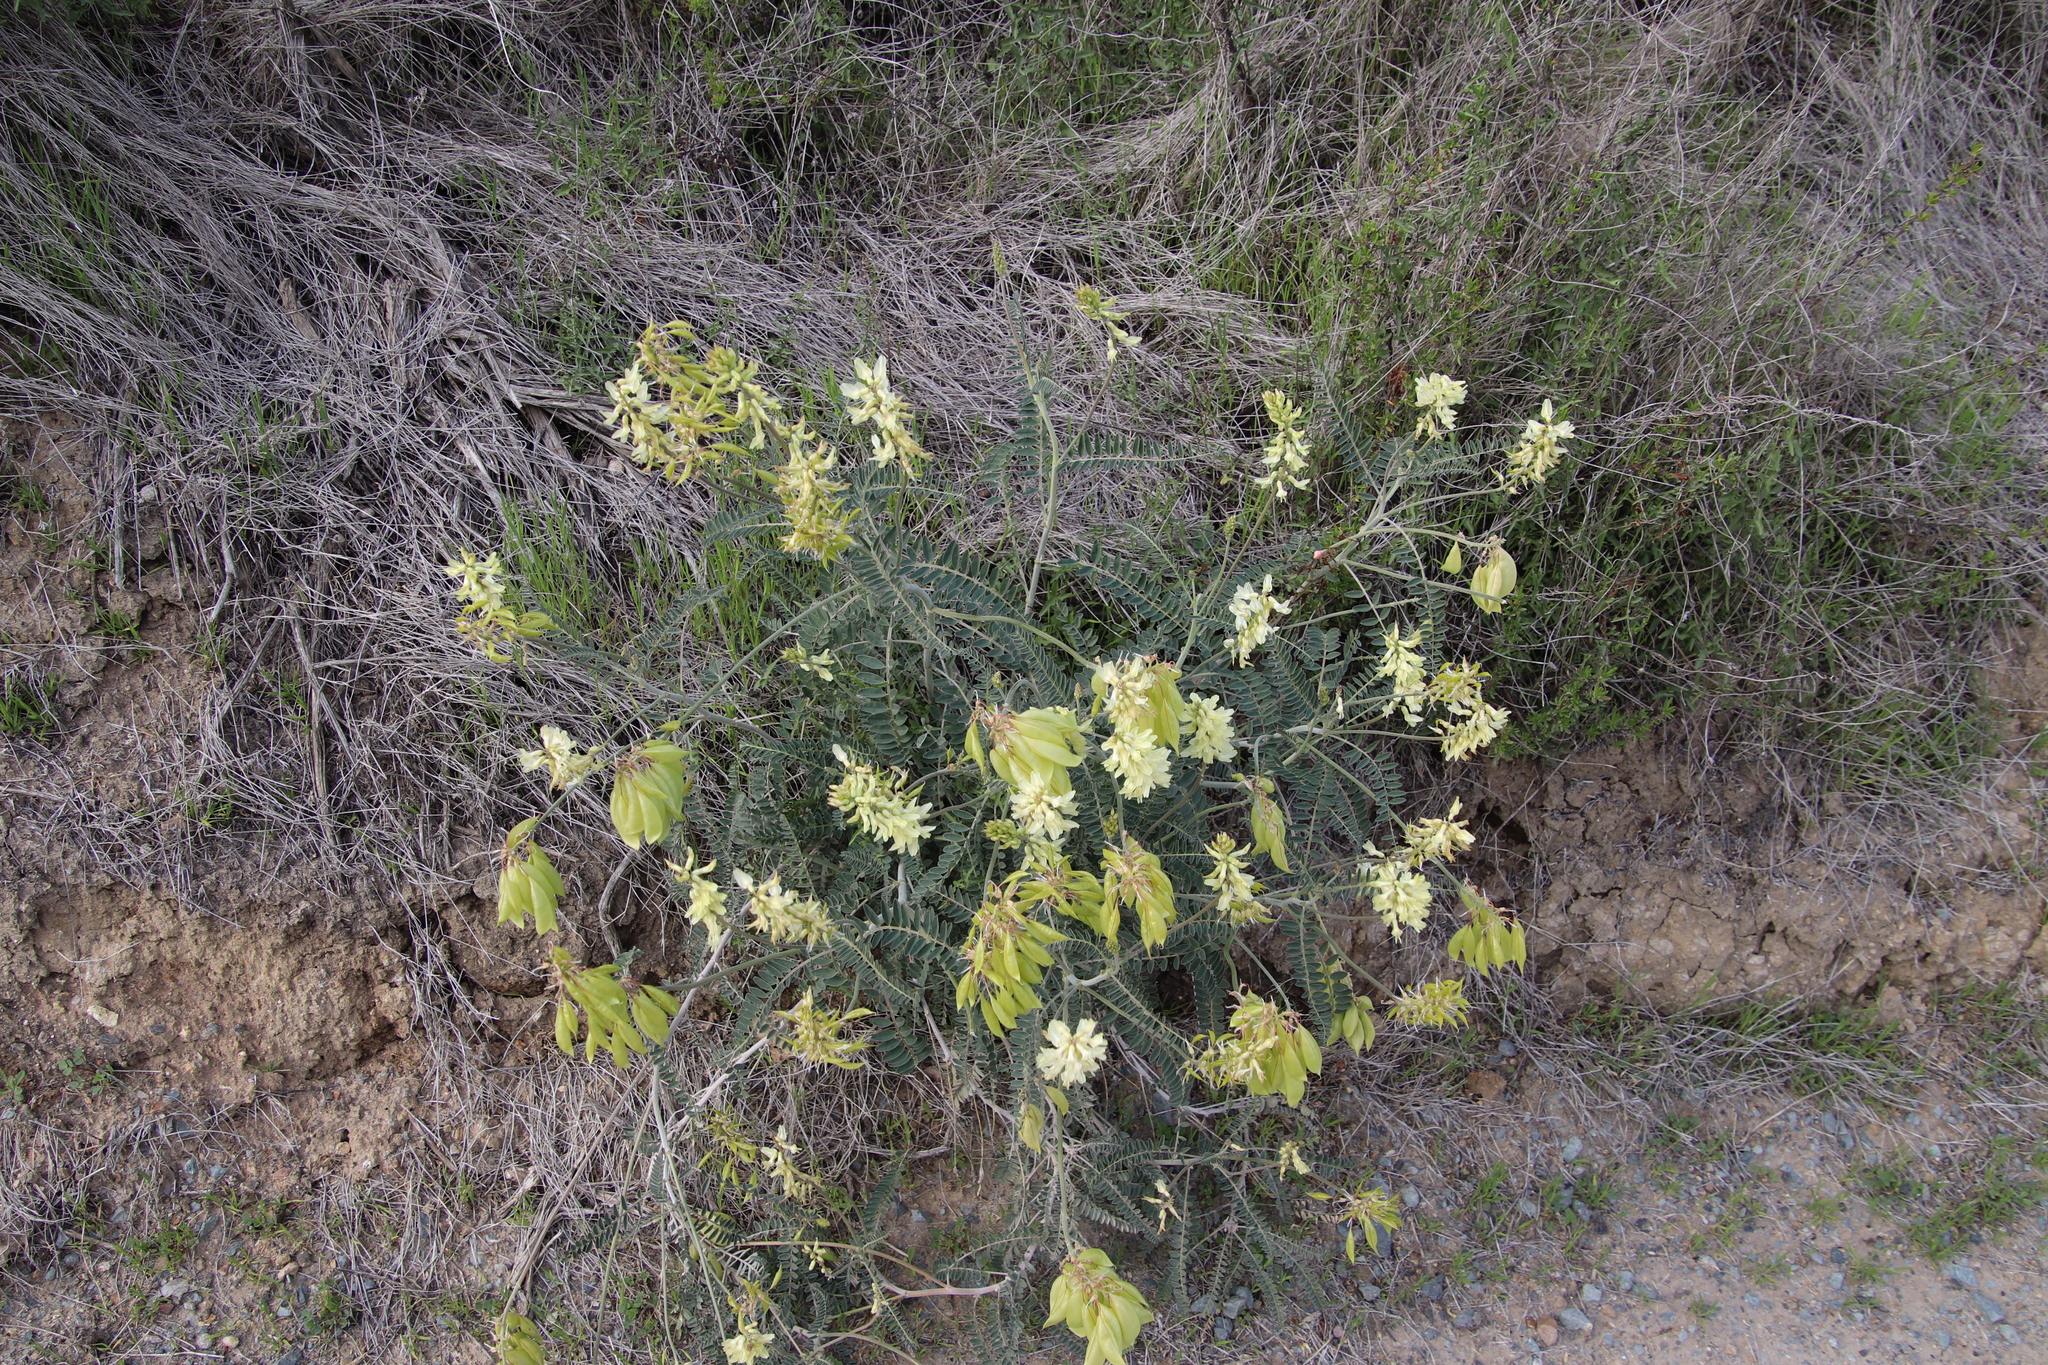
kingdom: Plantae
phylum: Tracheophyta
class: Magnoliopsida
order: Fabales
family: Fabaceae
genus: Astragalus
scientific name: Astragalus trichopodus
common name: Santa barbara milk-vetch
